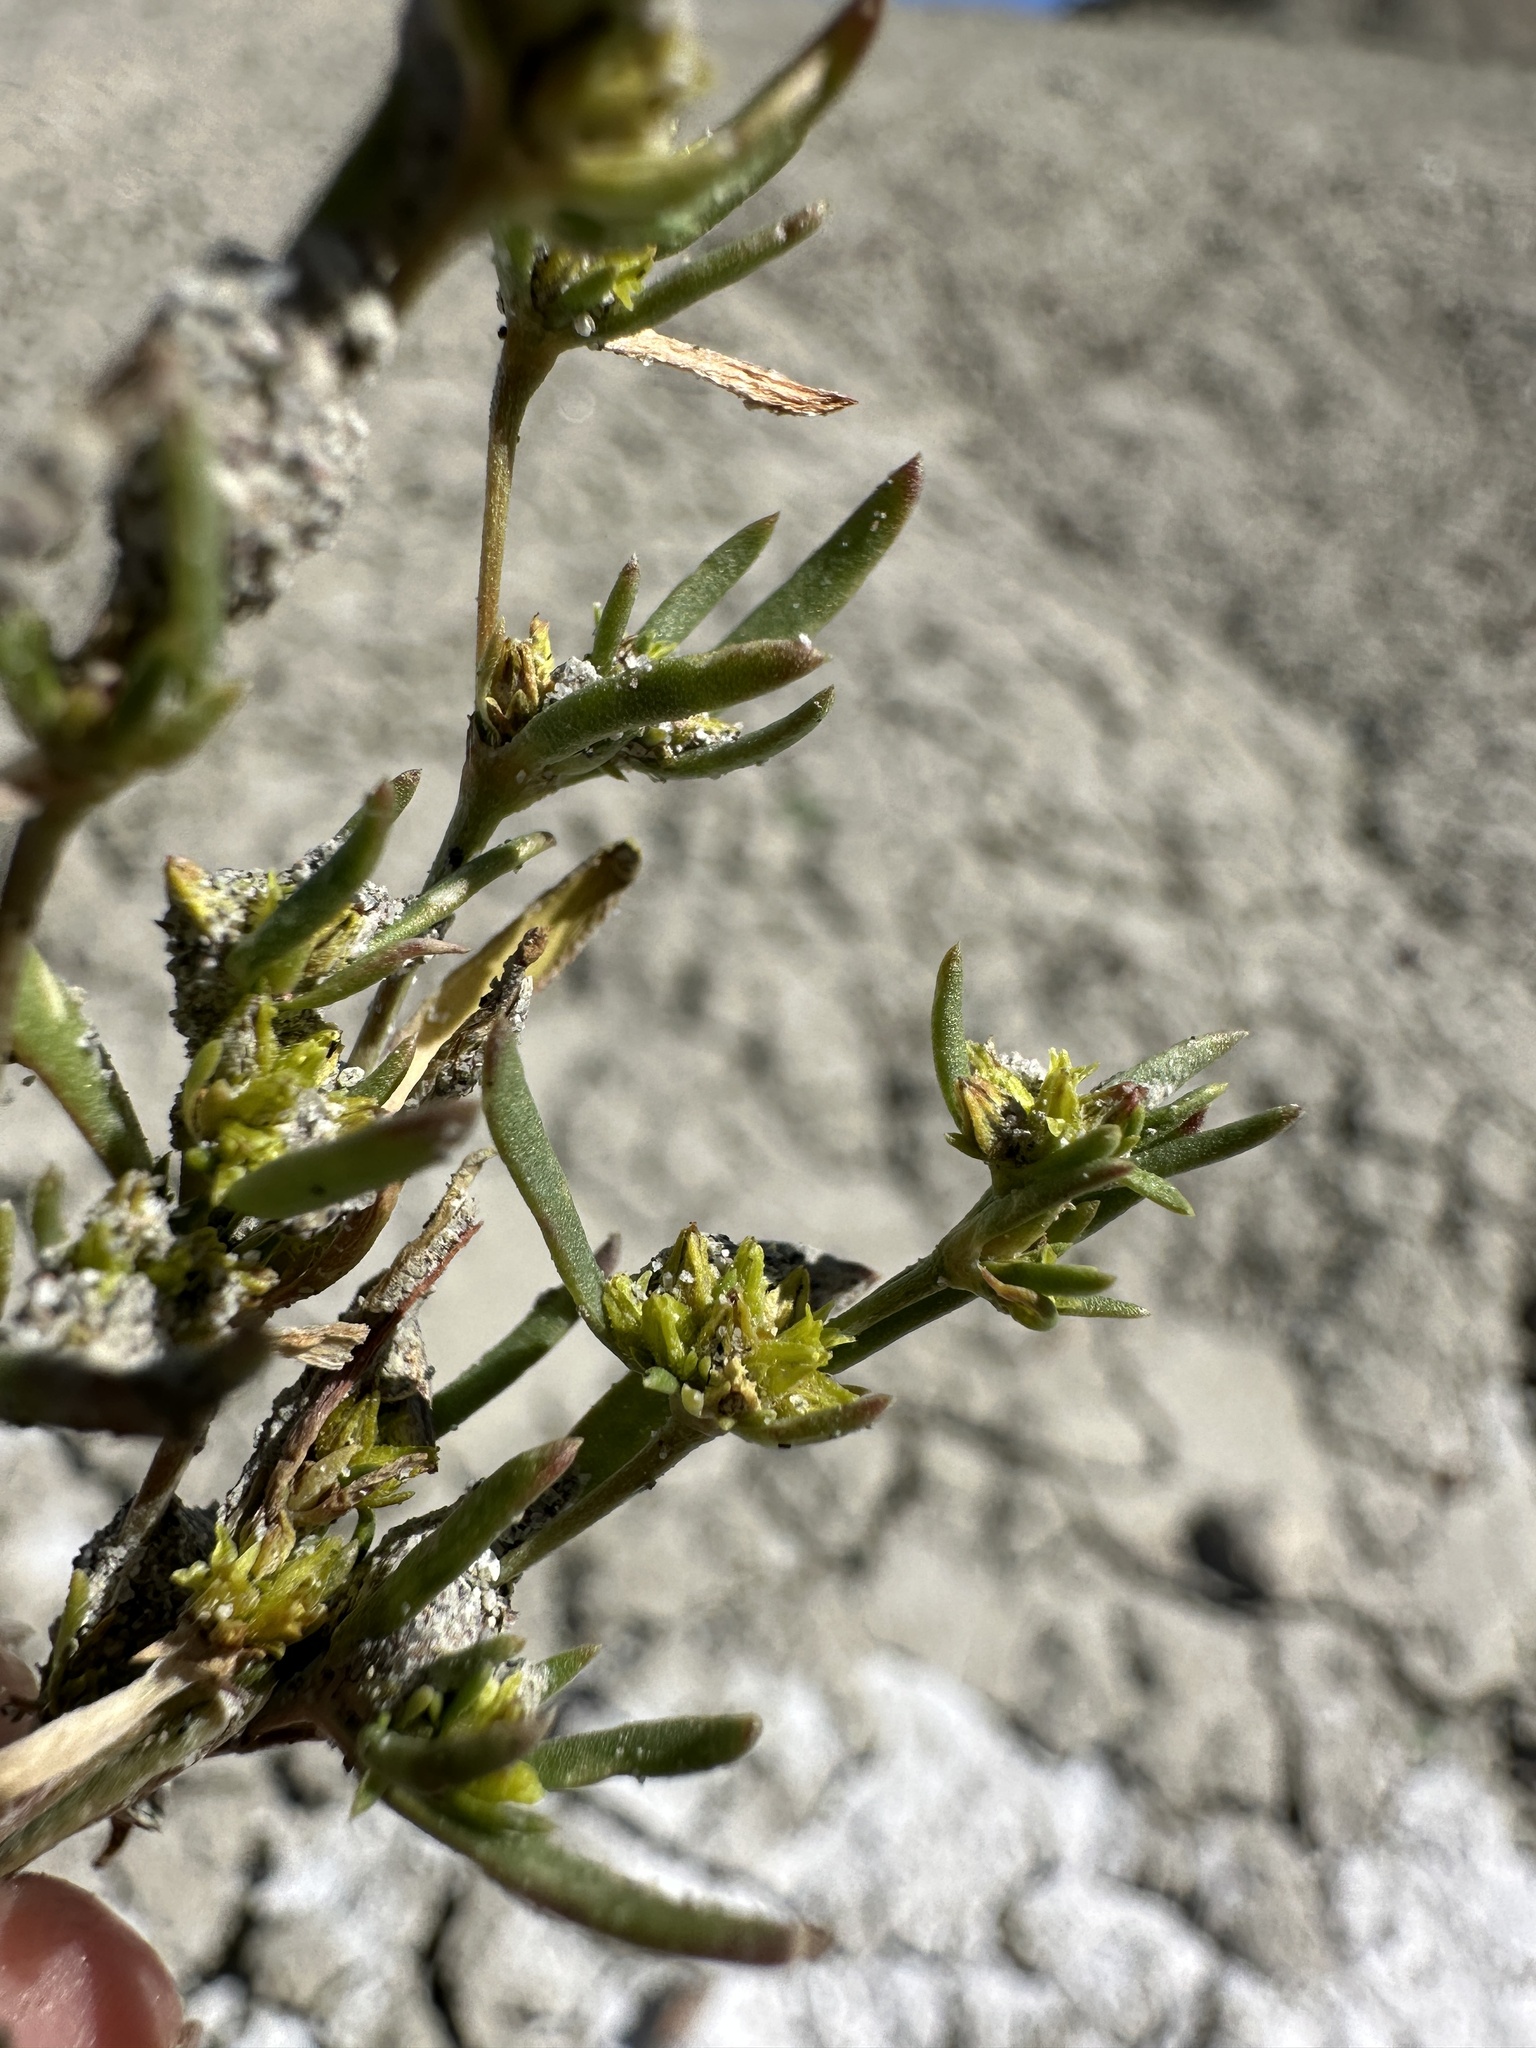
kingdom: Plantae
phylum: Tracheophyta
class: Magnoliopsida
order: Caryophyllales
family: Polygonaceae
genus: Stenogonum
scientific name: Stenogonum salsuginosum
